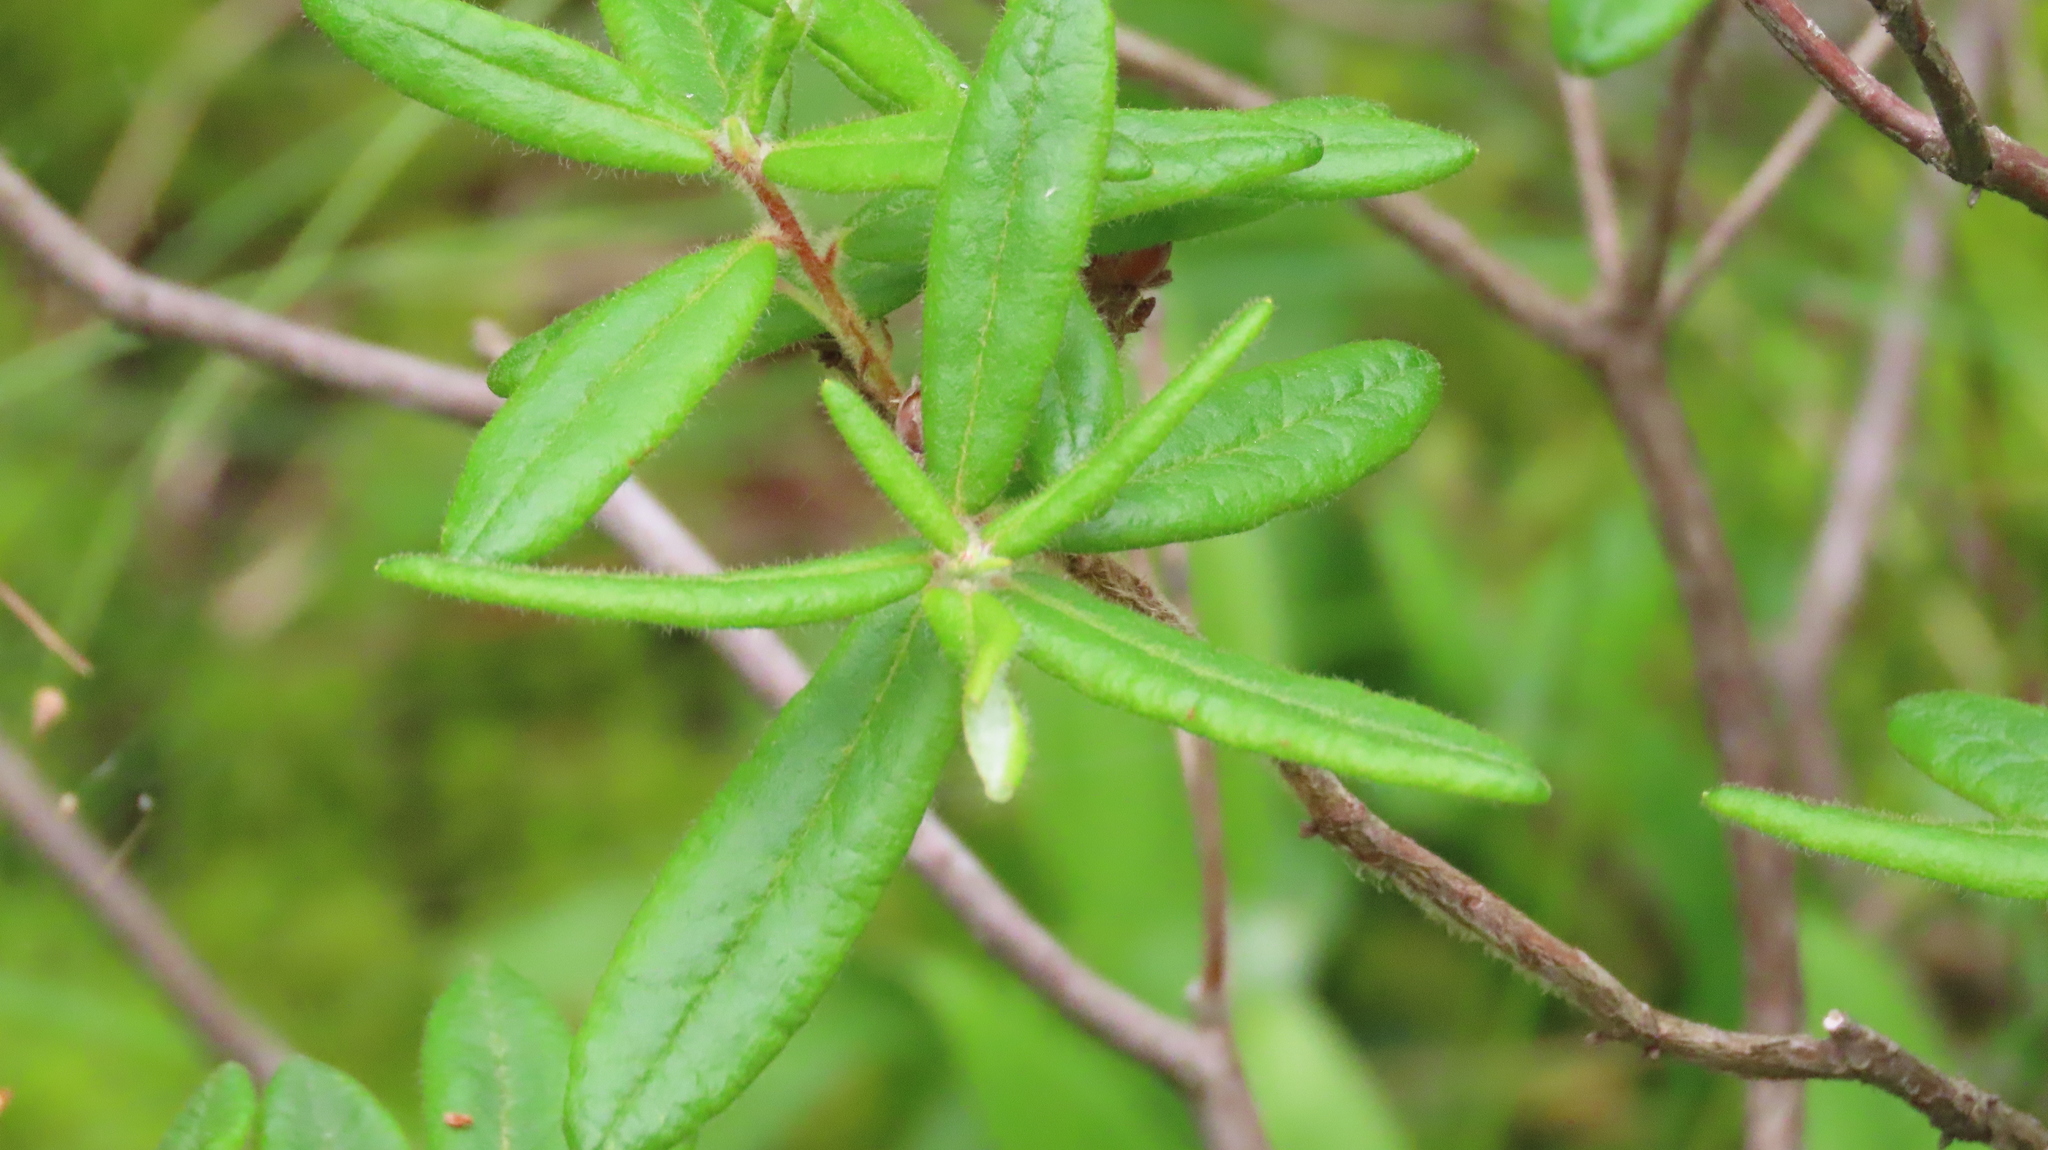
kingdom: Plantae
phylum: Tracheophyta
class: Magnoliopsida
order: Ericales
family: Ericaceae
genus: Rhododendron
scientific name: Rhododendron groenlandicum
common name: Bog labrador tea
